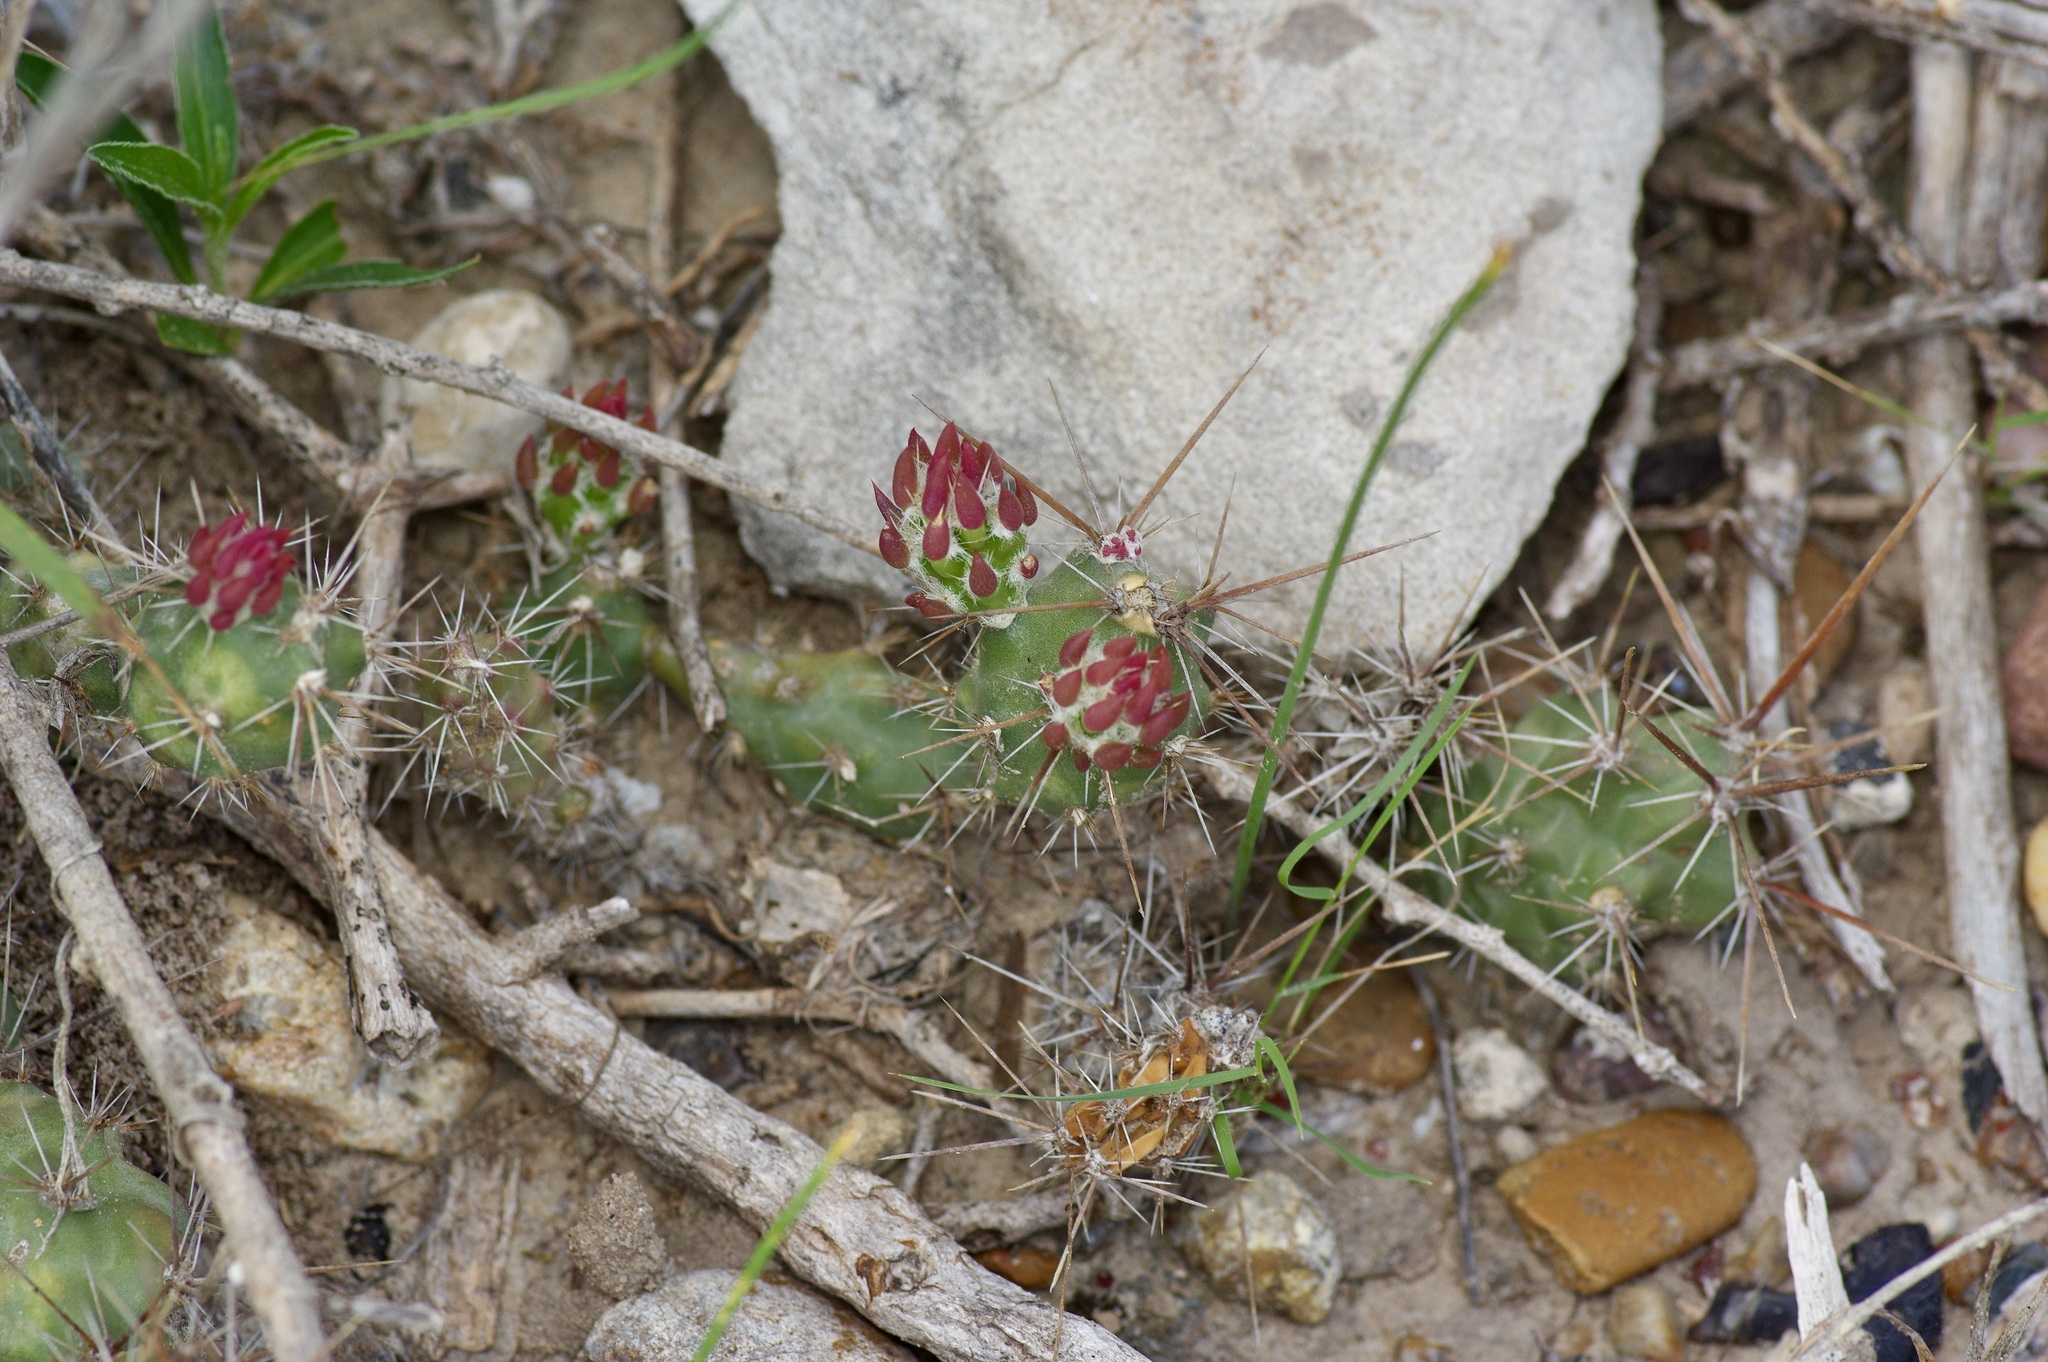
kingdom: Plantae
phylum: Tracheophyta
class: Magnoliopsida
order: Caryophyllales
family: Cactaceae
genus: Grusonia
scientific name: Grusonia schottii
